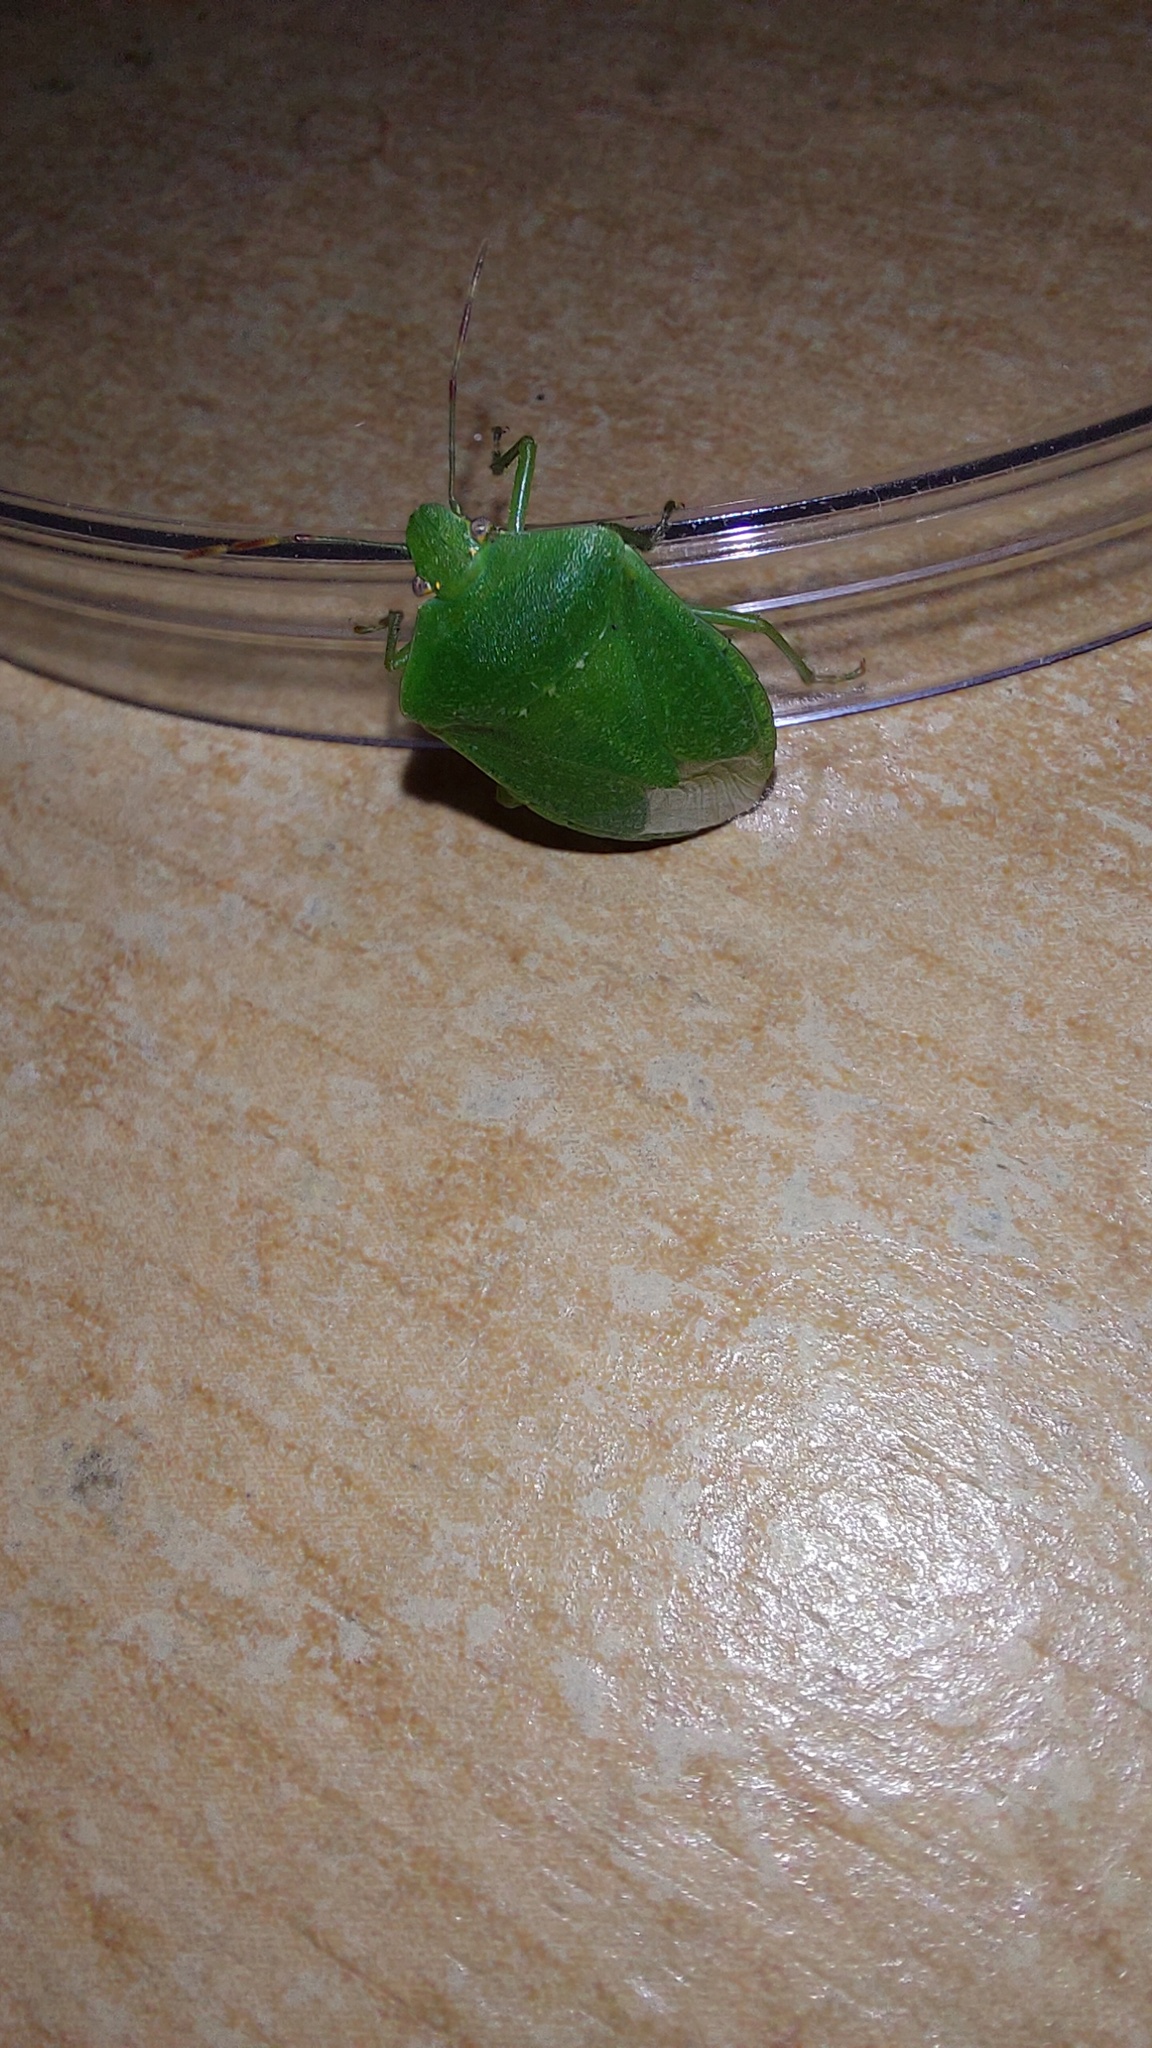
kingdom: Animalia
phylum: Arthropoda
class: Insecta
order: Hemiptera
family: Pentatomidae
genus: Nezara
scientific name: Nezara viridula
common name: Southern green stink bug
